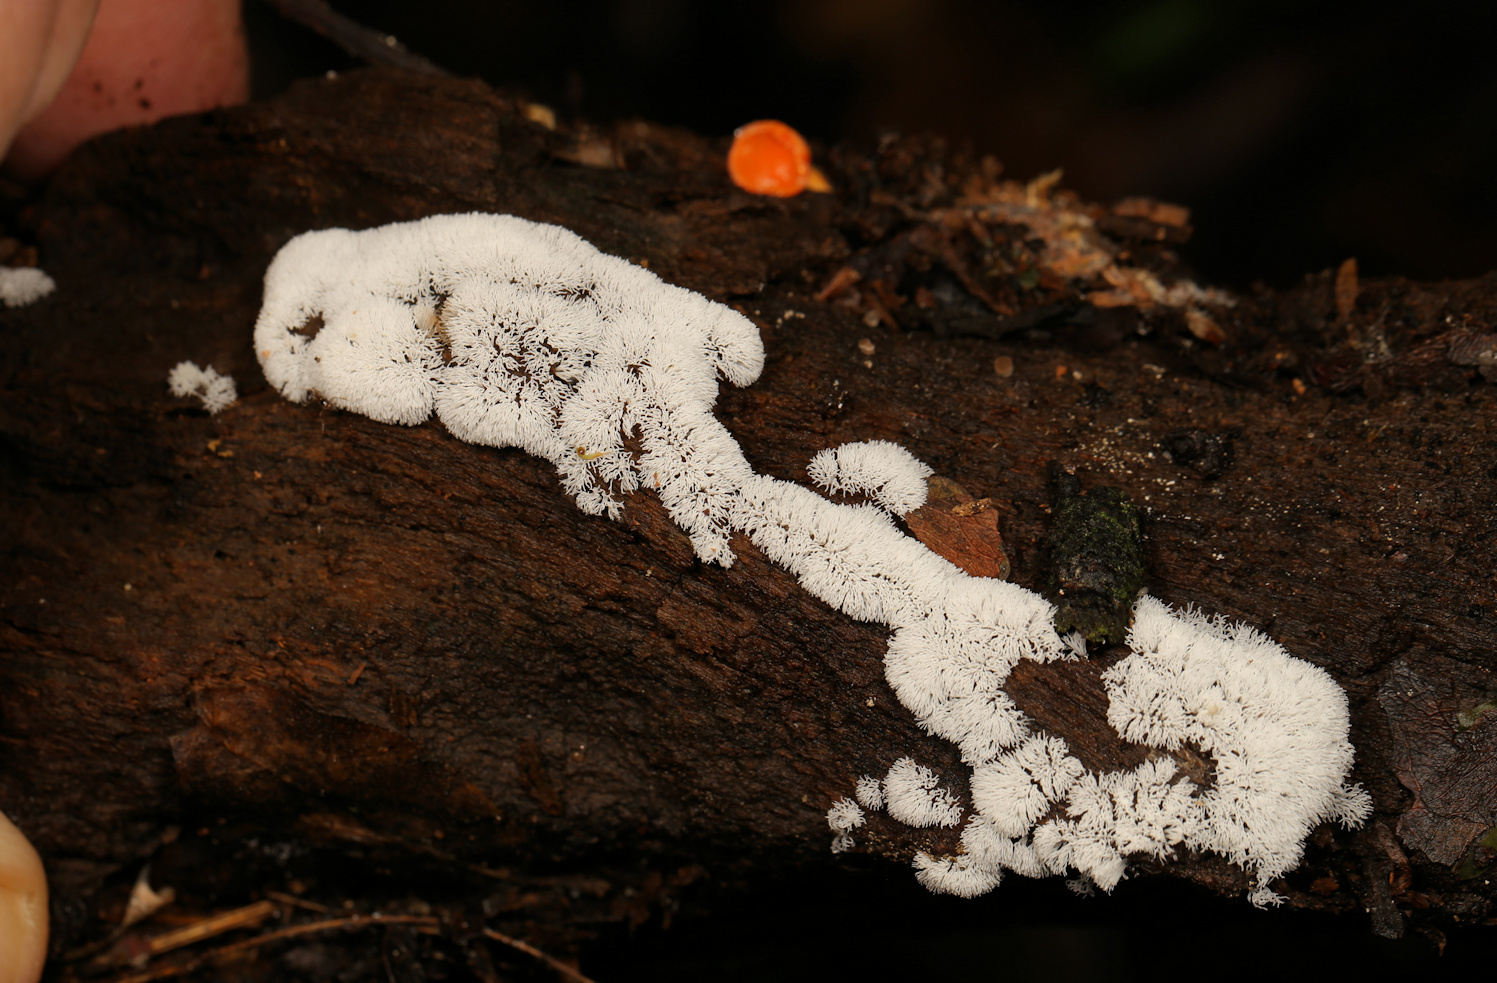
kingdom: Protozoa
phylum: Mycetozoa
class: Protosteliomycetes
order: Ceratiomyxales
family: Ceratiomyxaceae
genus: Ceratiomyxa
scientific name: Ceratiomyxa fruticulosa
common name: Honeycomb coral slime mold
